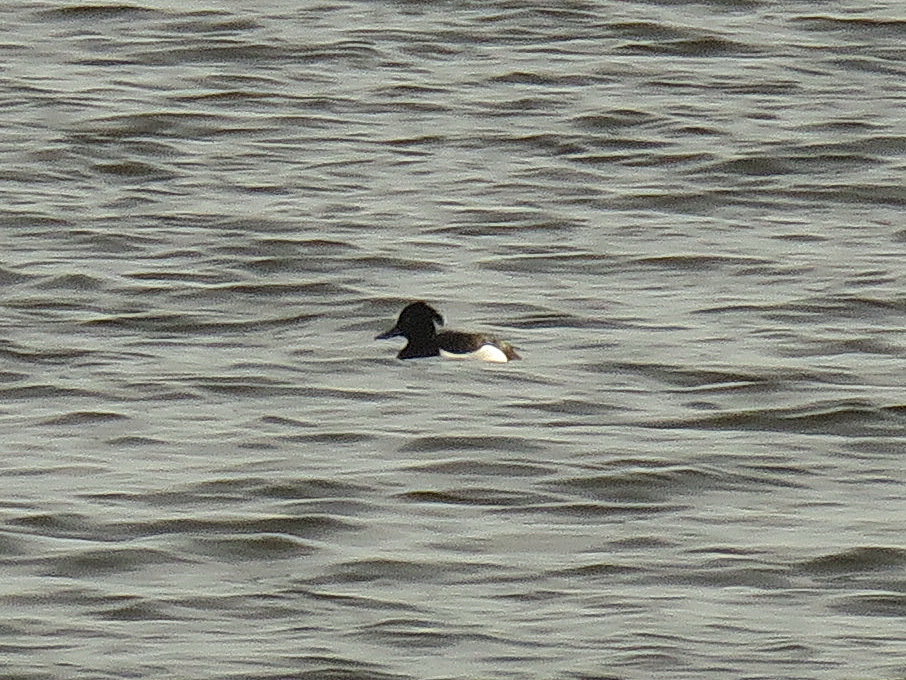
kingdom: Animalia
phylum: Chordata
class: Aves
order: Anseriformes
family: Anatidae
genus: Aythya
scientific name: Aythya fuligula
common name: Tufted duck
